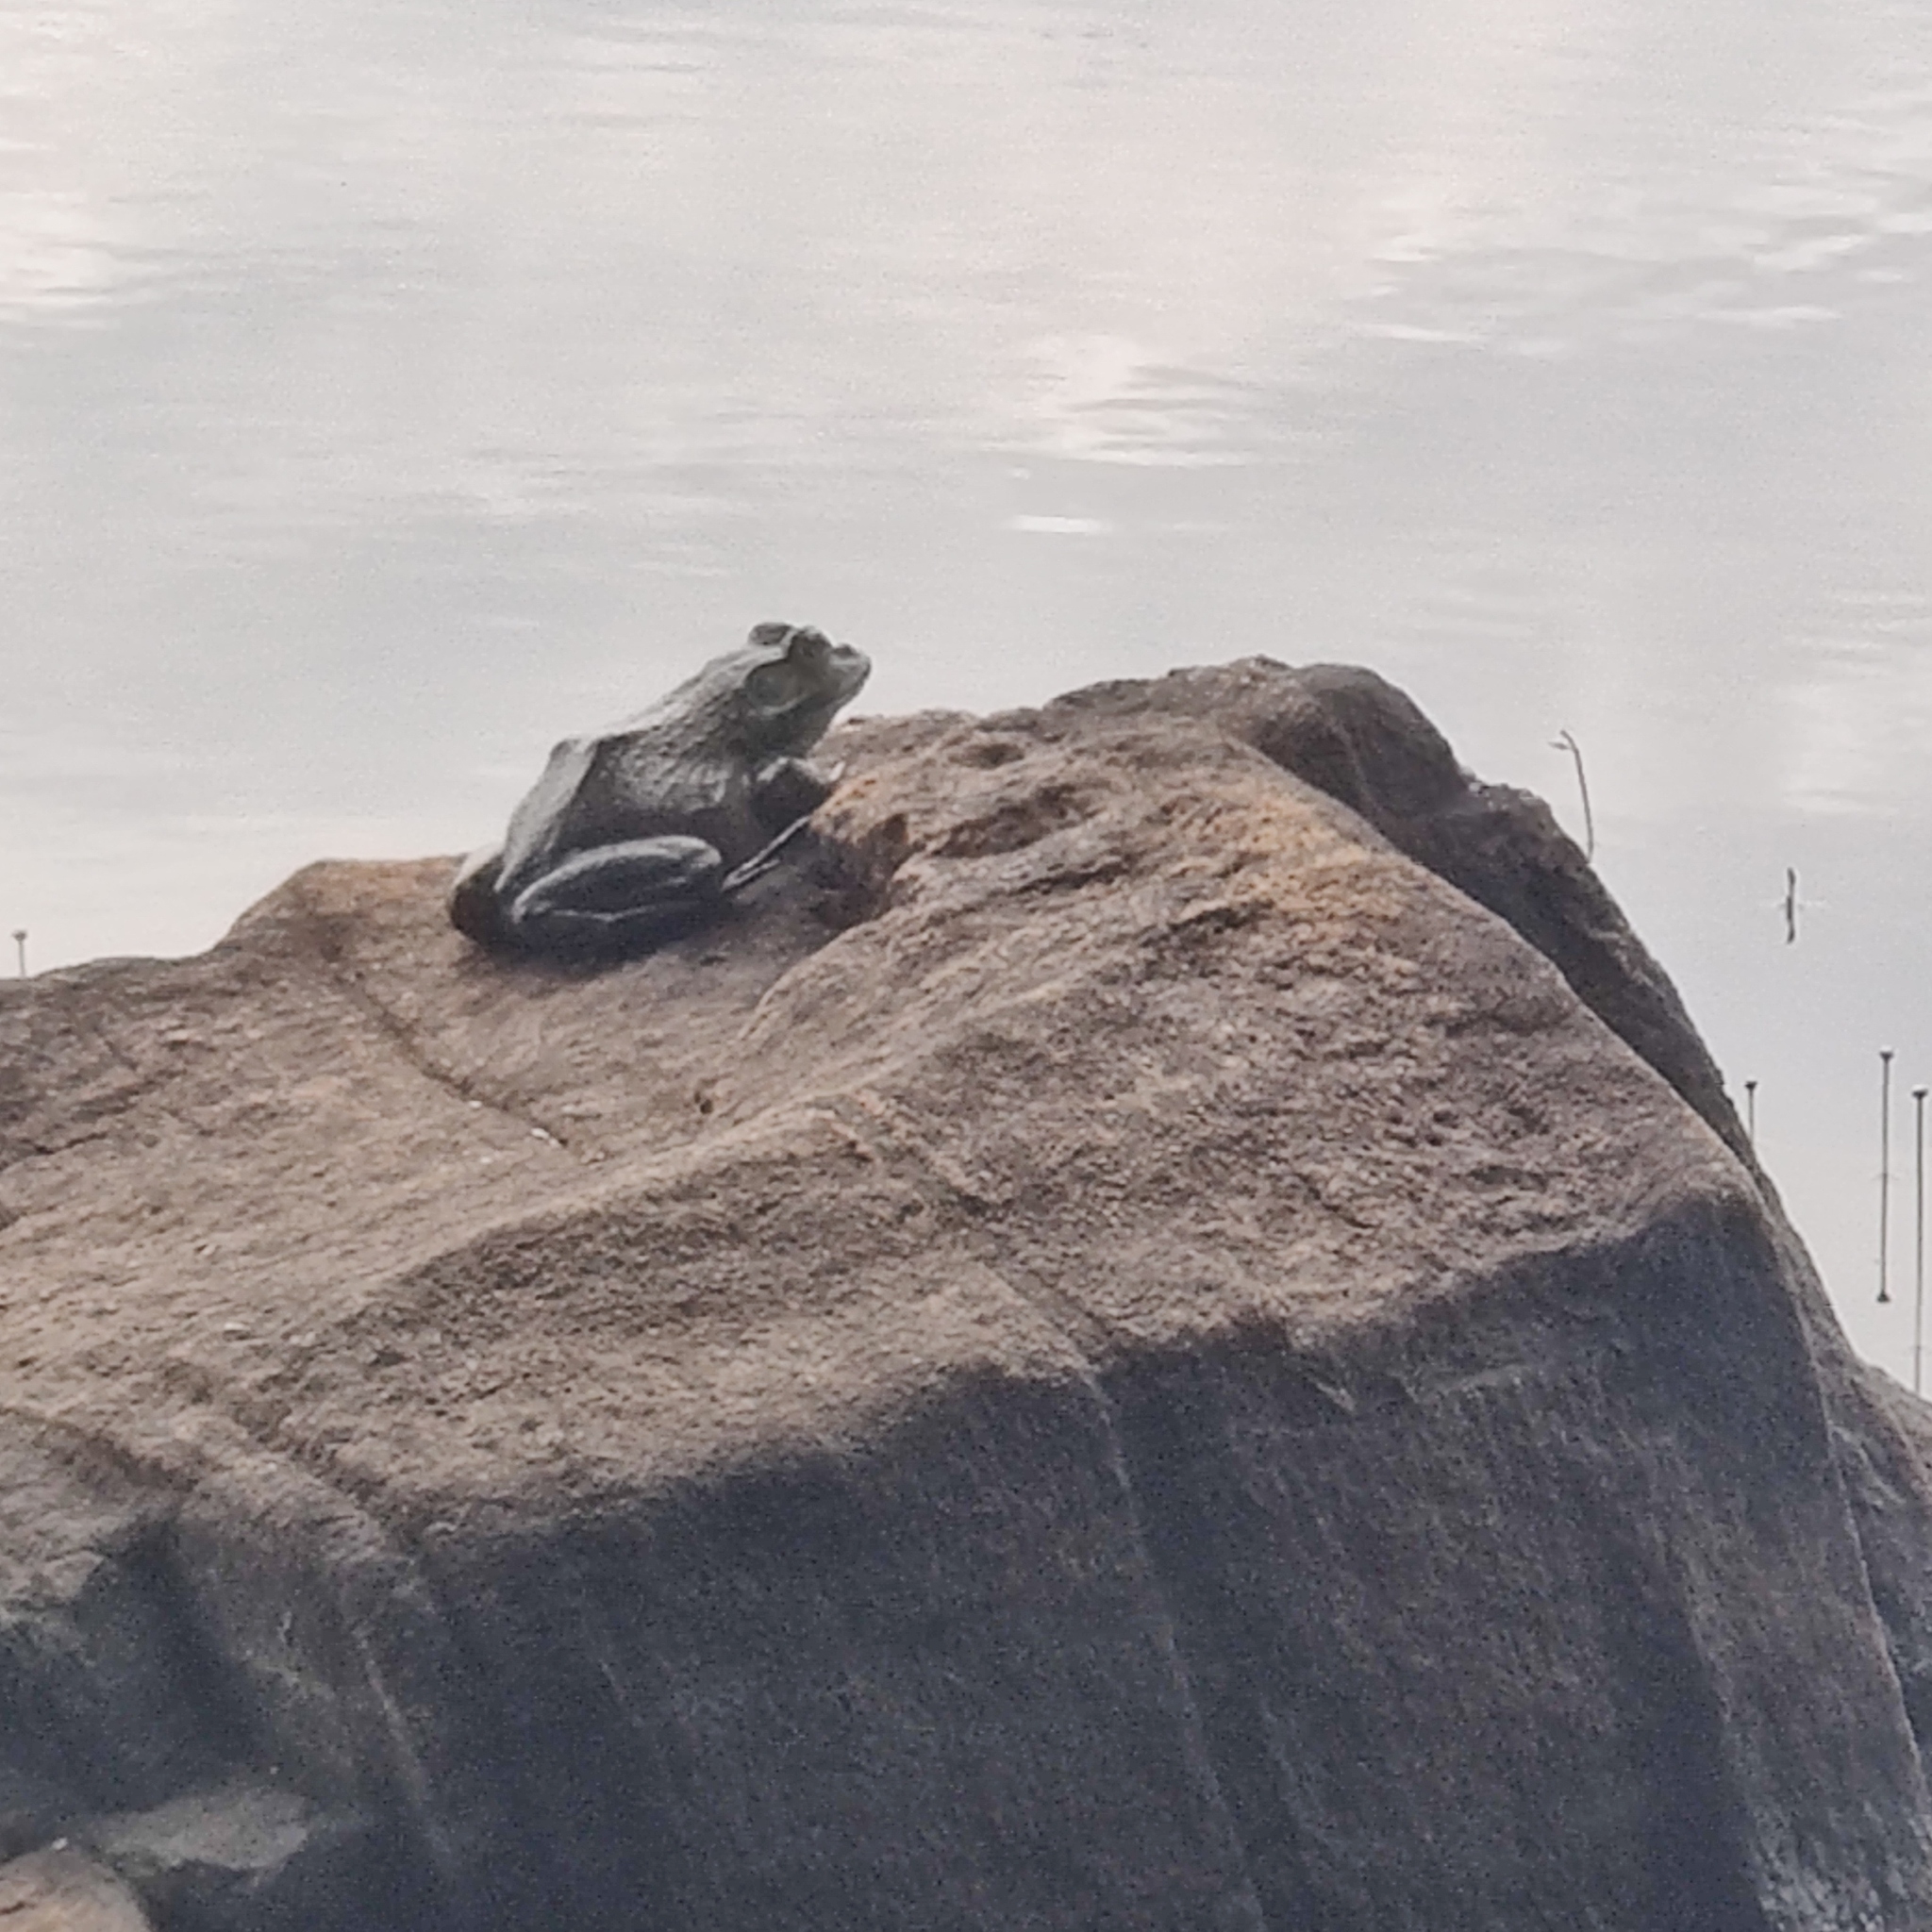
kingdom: Animalia
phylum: Chordata
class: Amphibia
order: Anura
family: Ranidae
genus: Lithobates
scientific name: Lithobates catesbeianus
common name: American bullfrog
